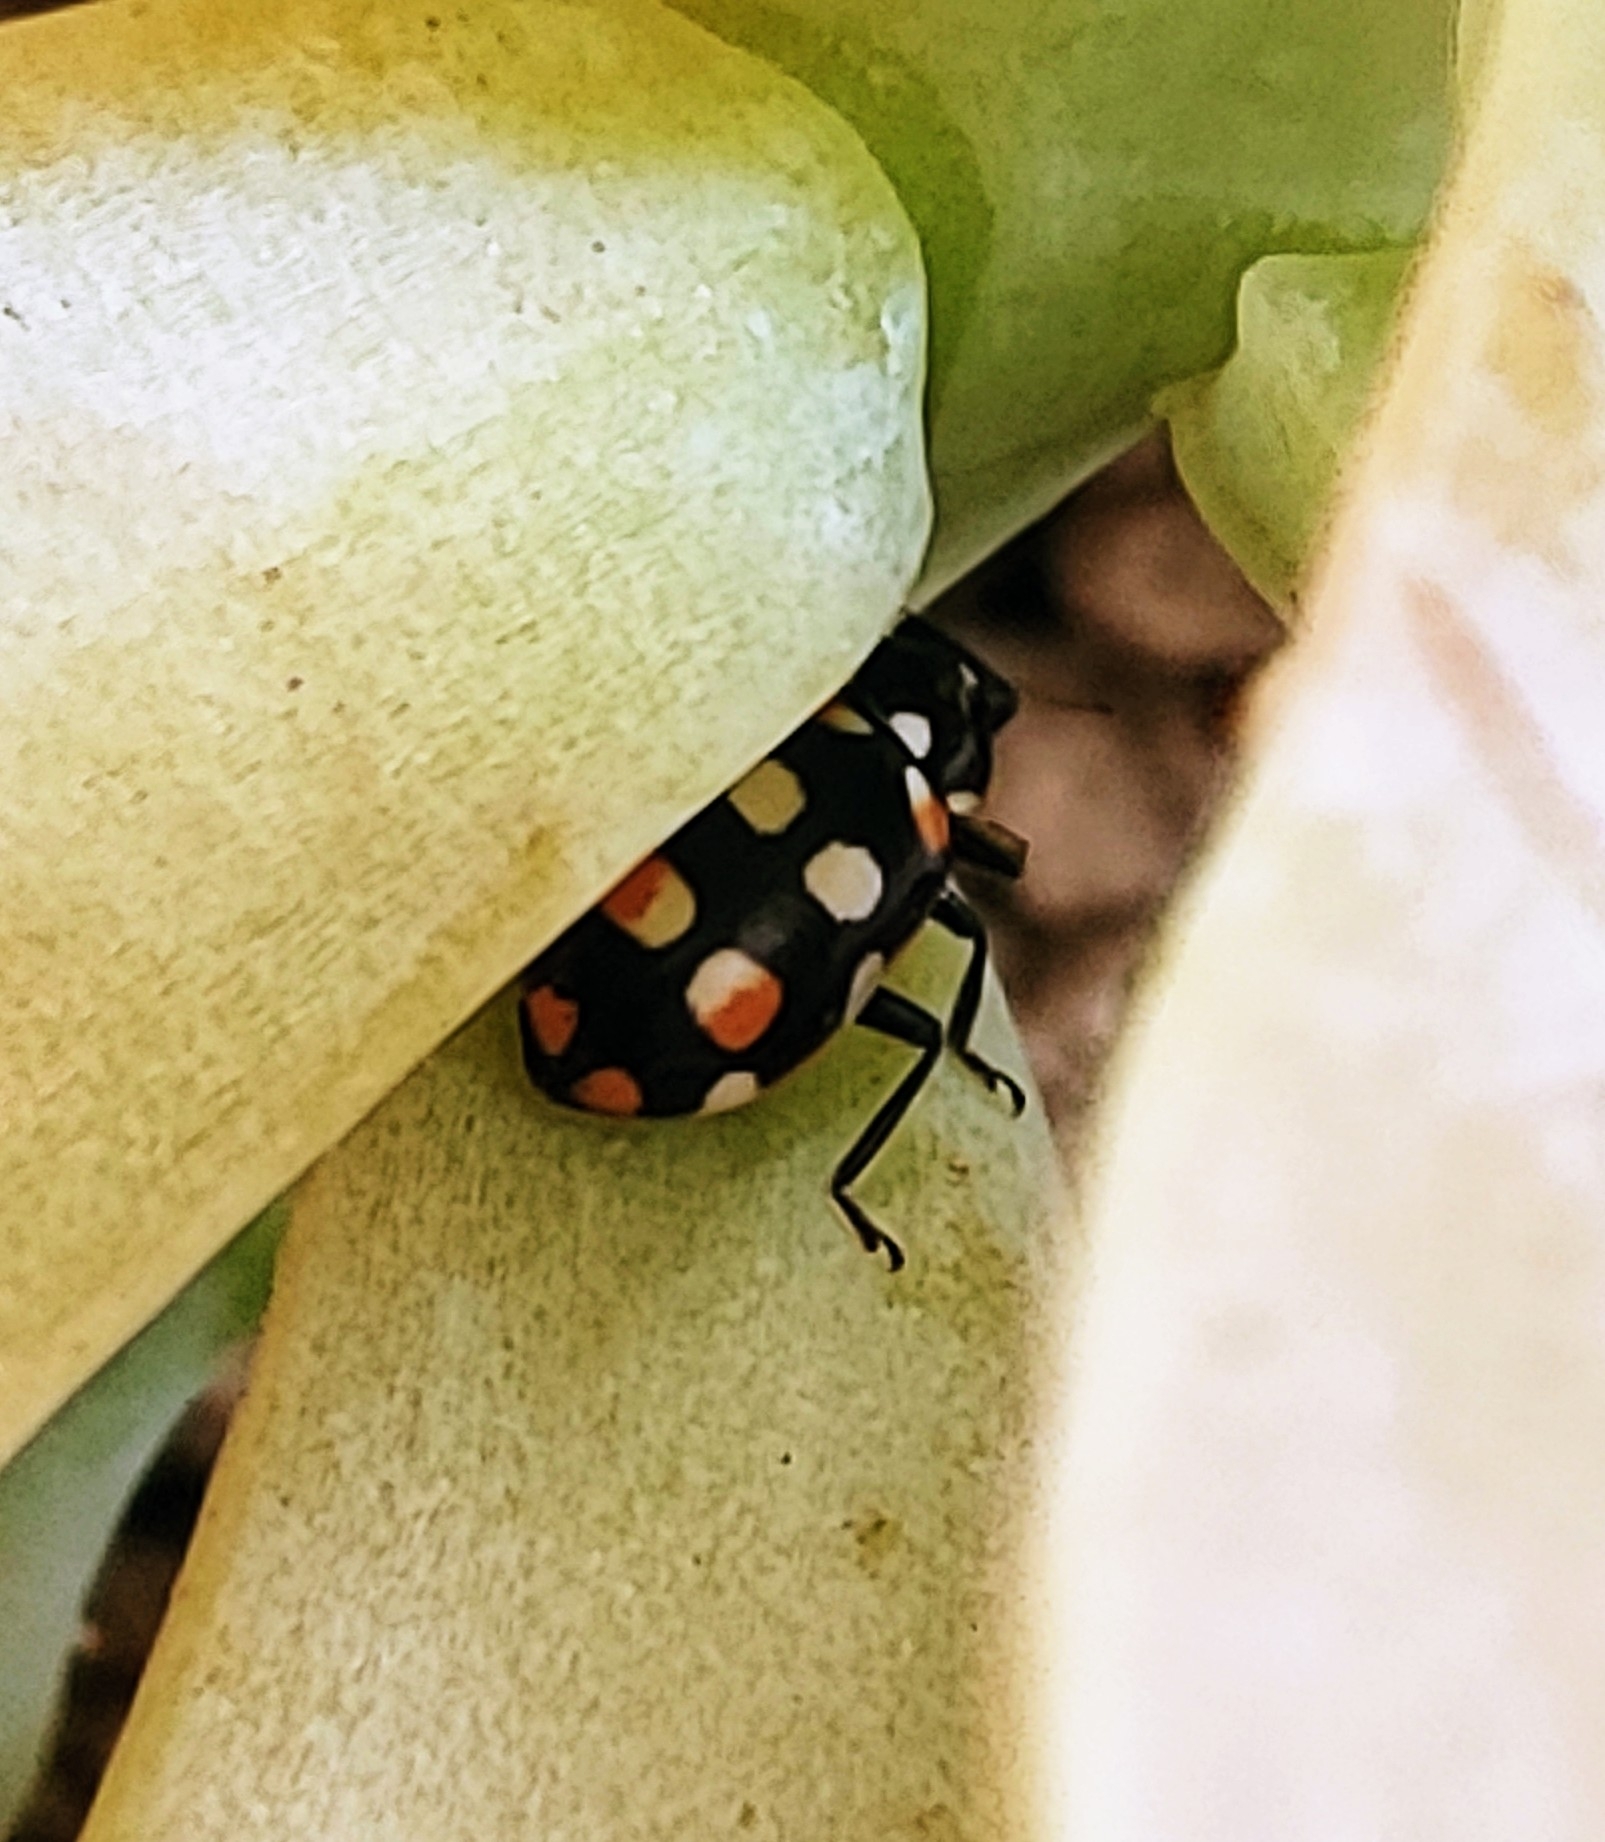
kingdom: Animalia
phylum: Arthropoda
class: Insecta
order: Coleoptera
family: Coccinellidae
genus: Eriopis
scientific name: Eriopis connexa
